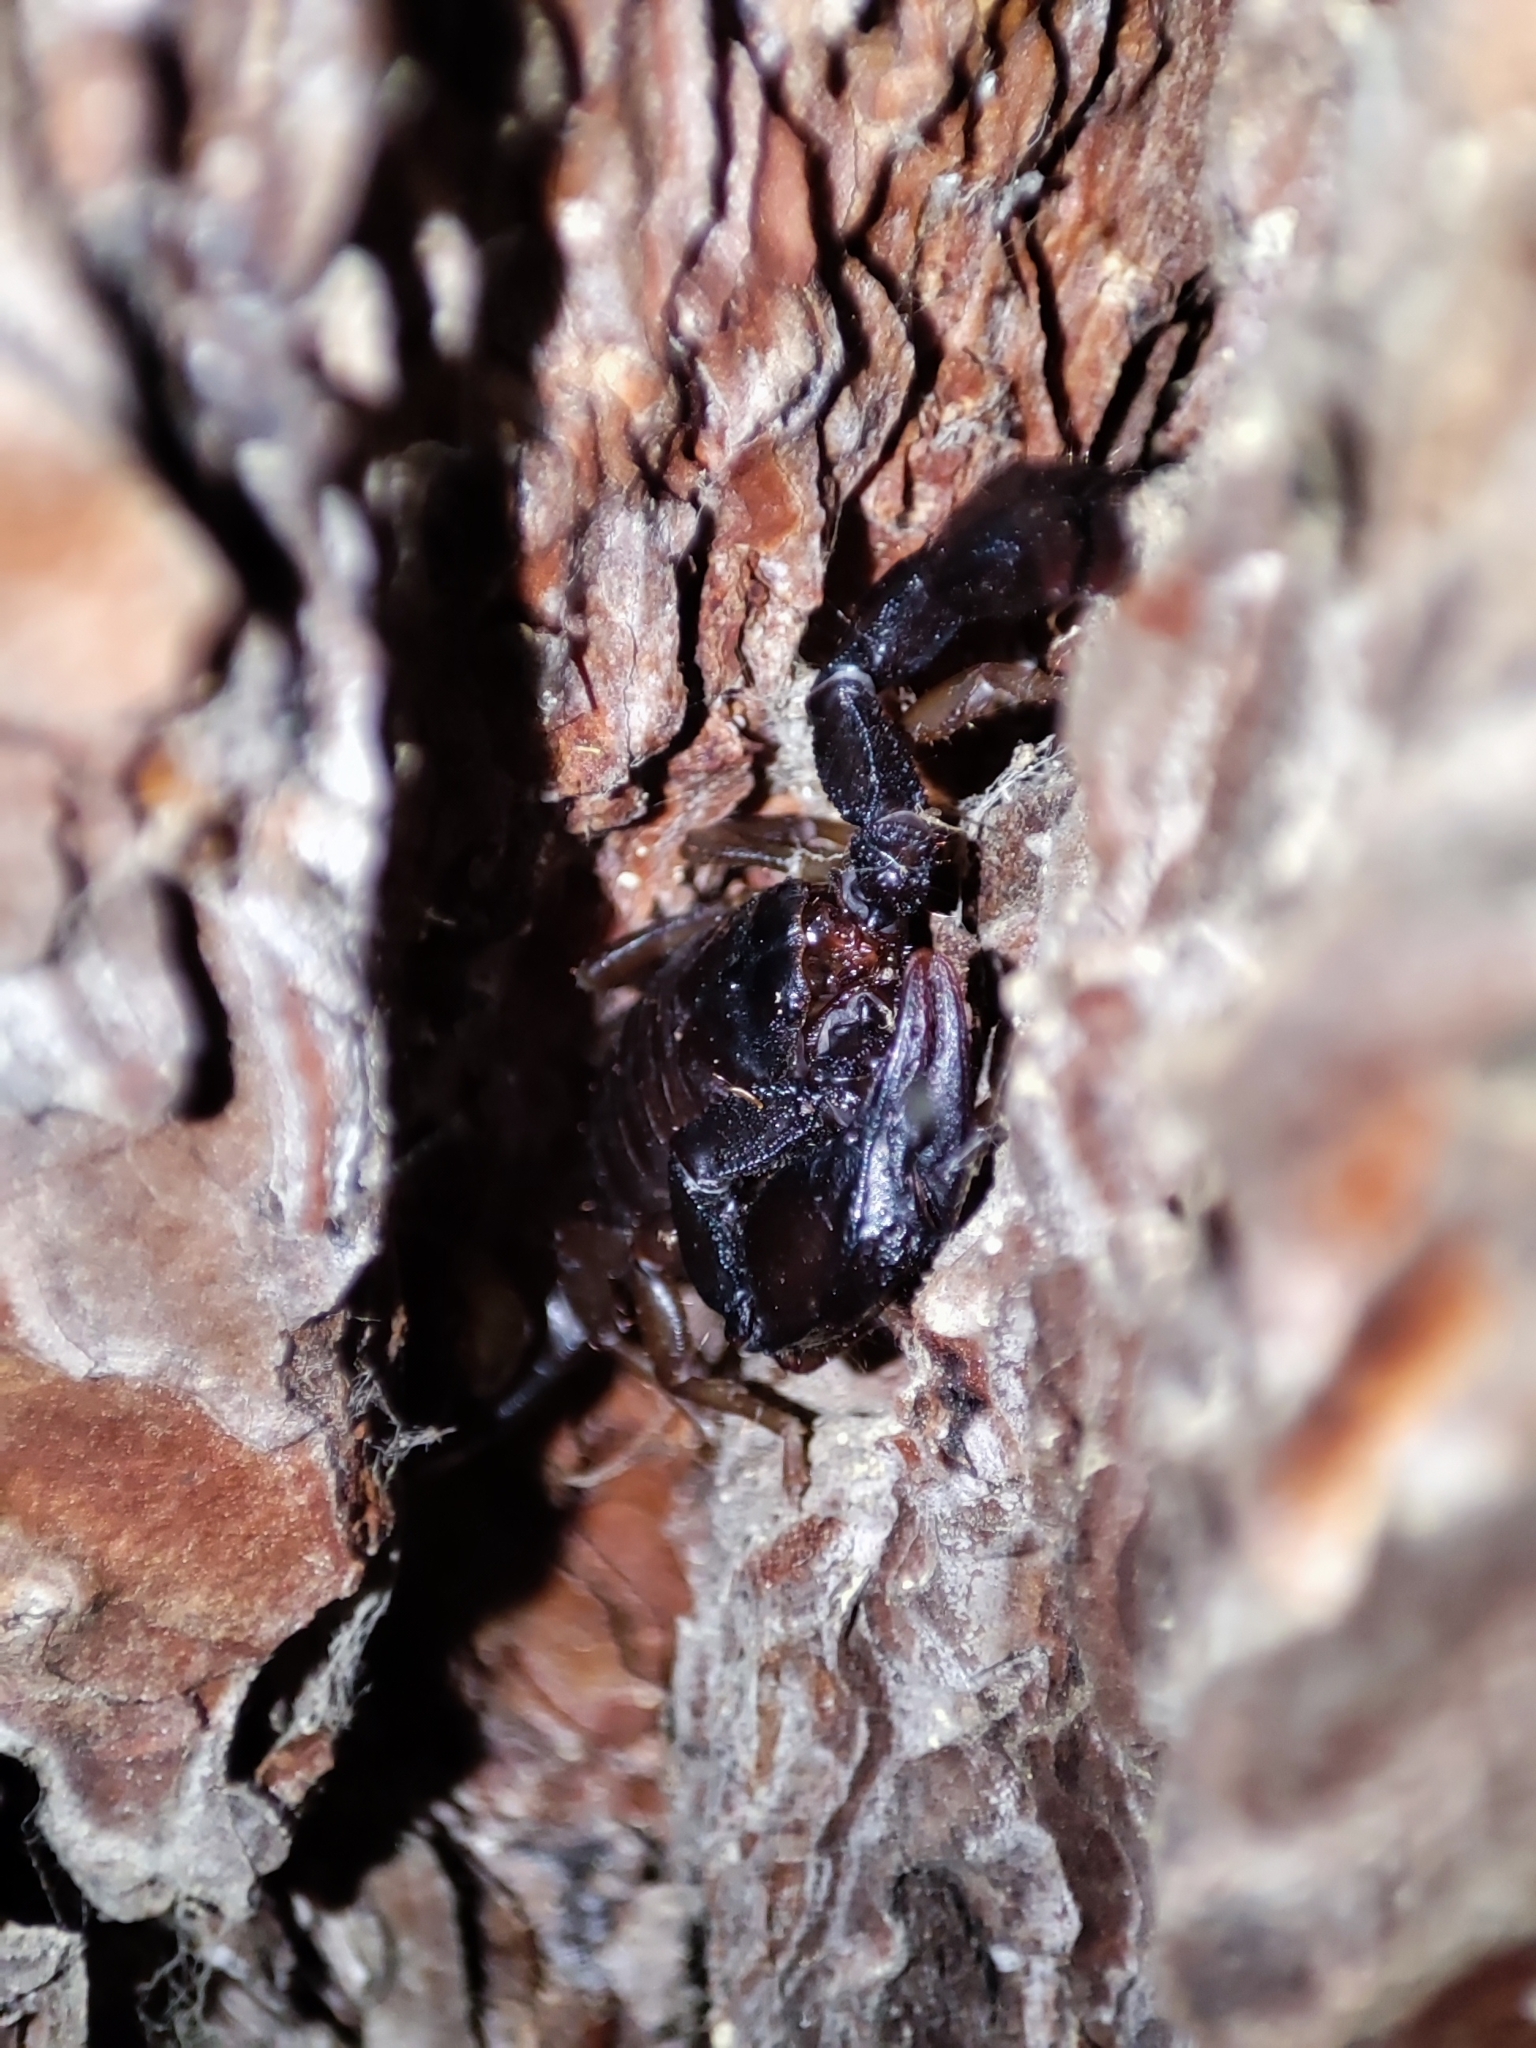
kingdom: Animalia
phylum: Arthropoda
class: Arachnida
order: Scorpiones
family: Euscorpiidae
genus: Euscorpius
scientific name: Euscorpius italicus
